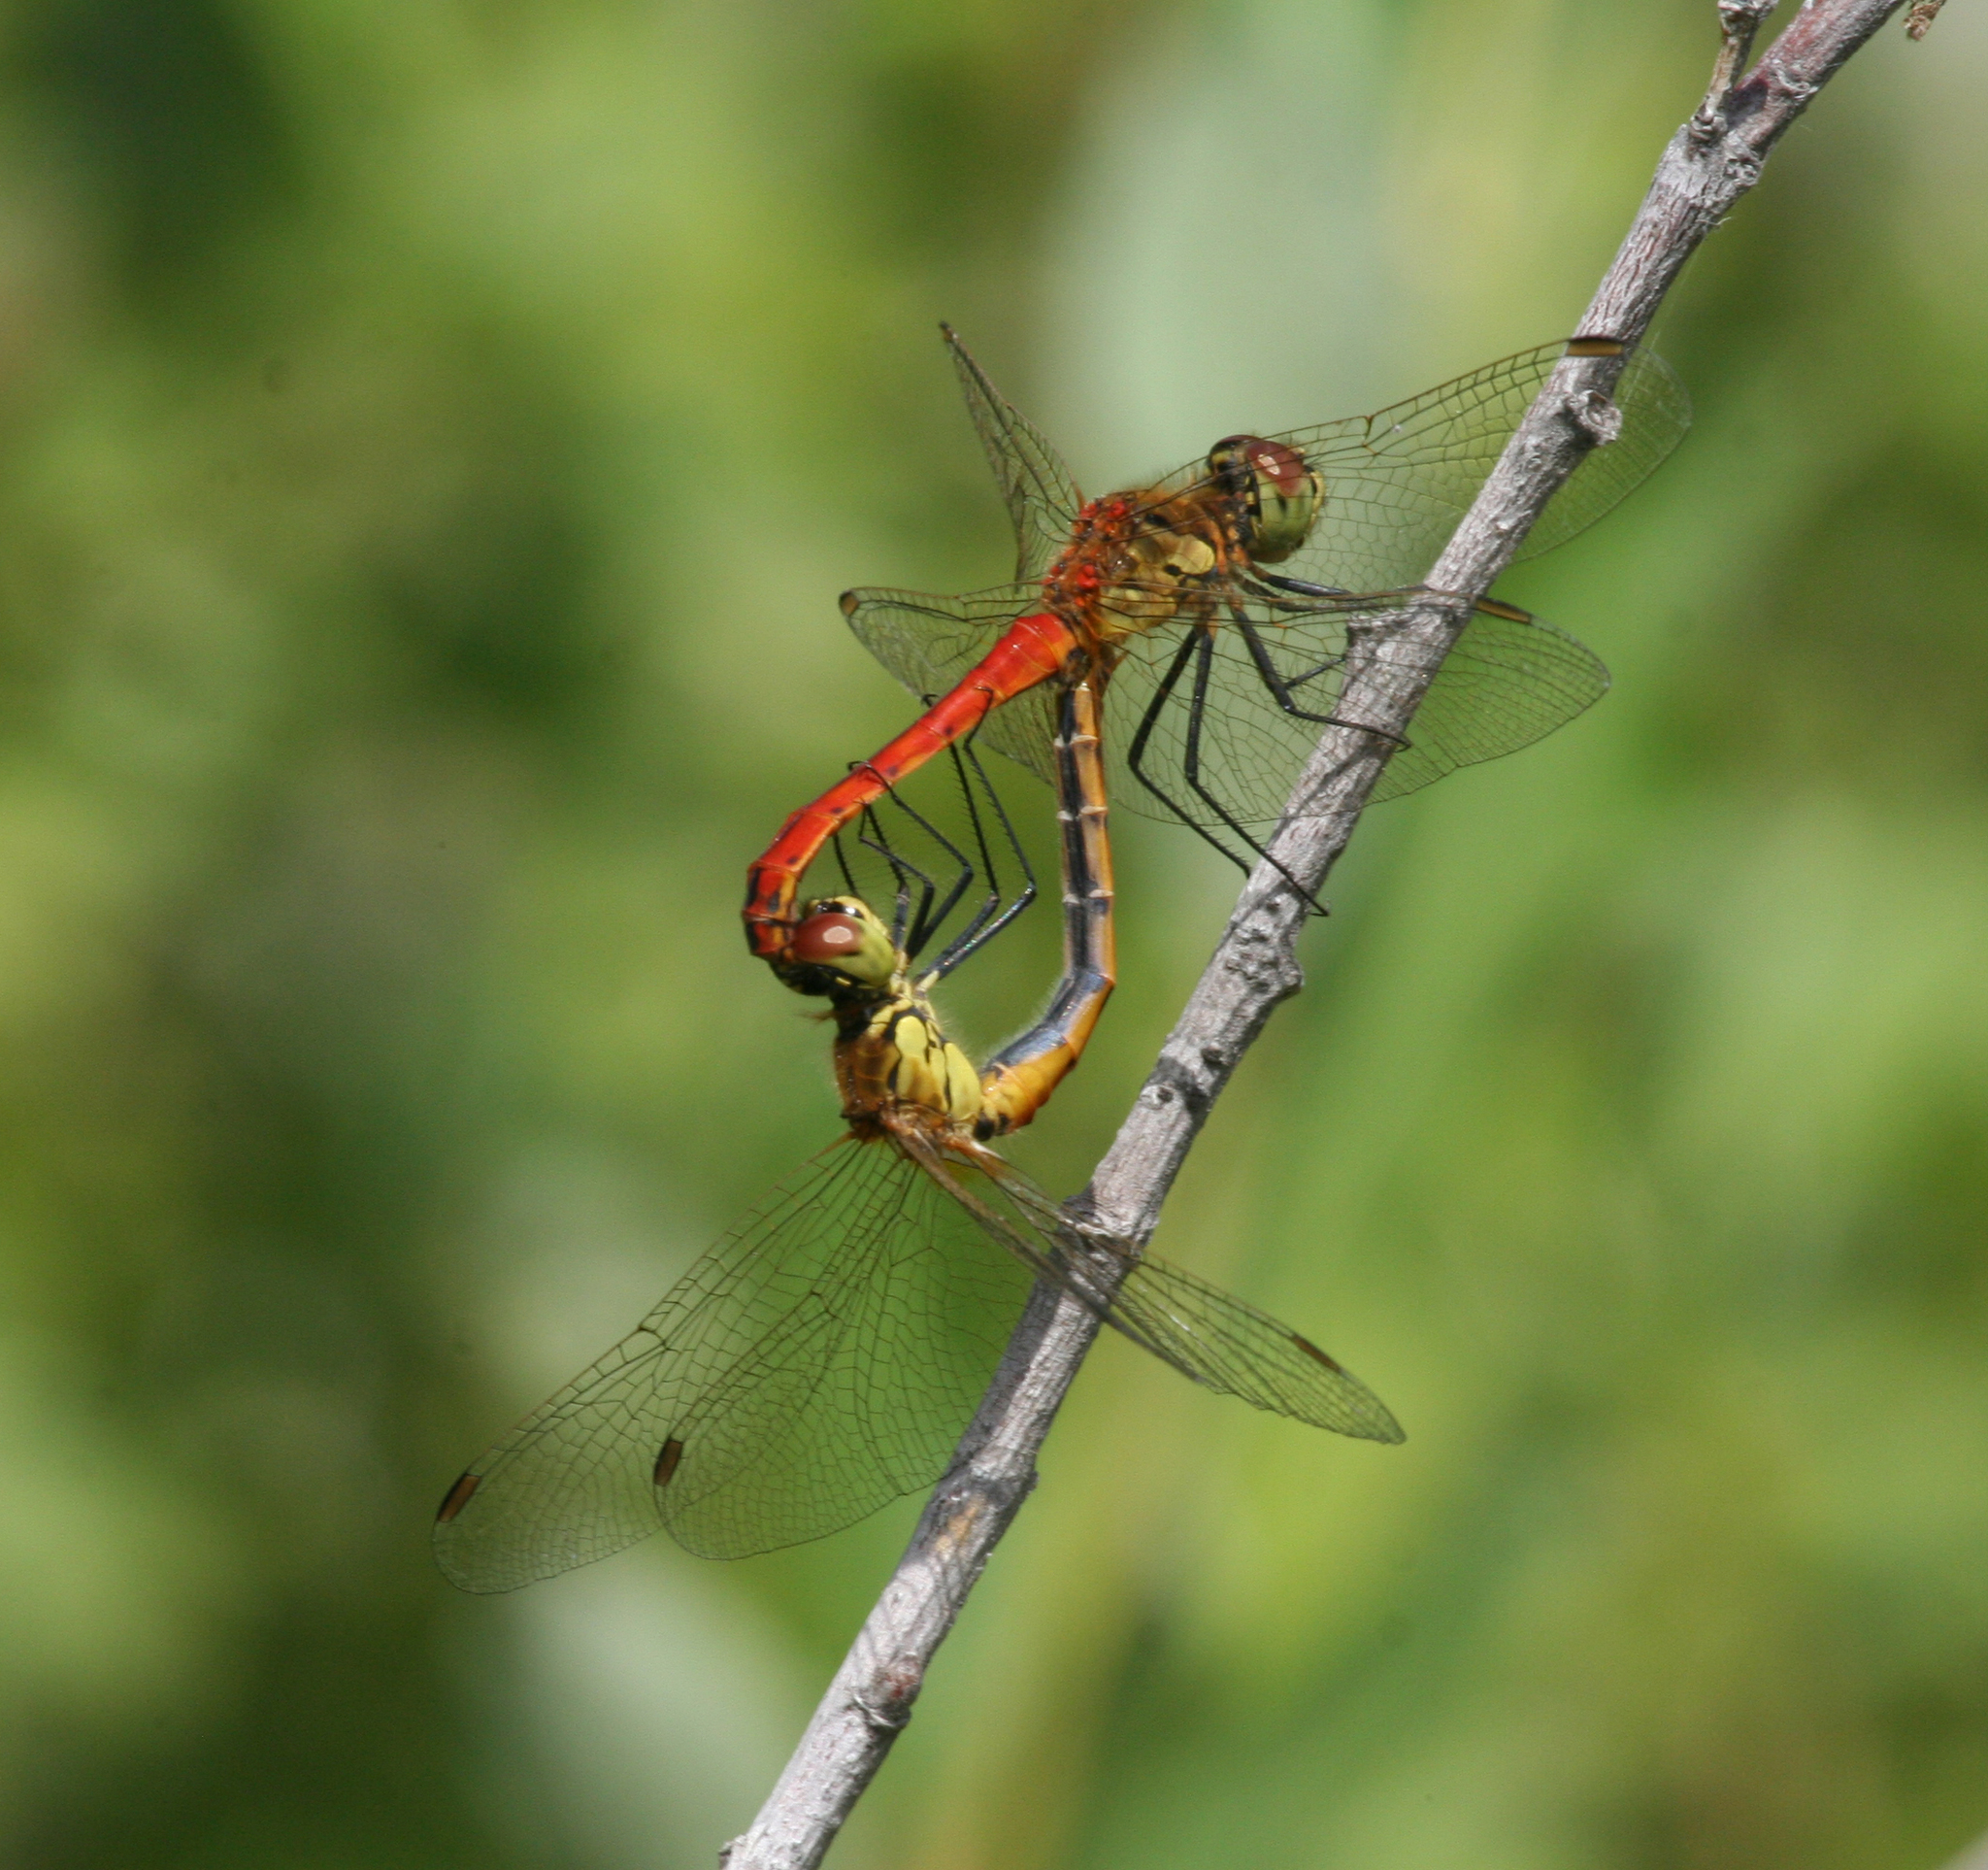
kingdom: Animalia
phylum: Arthropoda
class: Insecta
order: Odonata
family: Libellulidae
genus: Sympetrum
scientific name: Sympetrum depressiusculum
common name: Spotted darter
